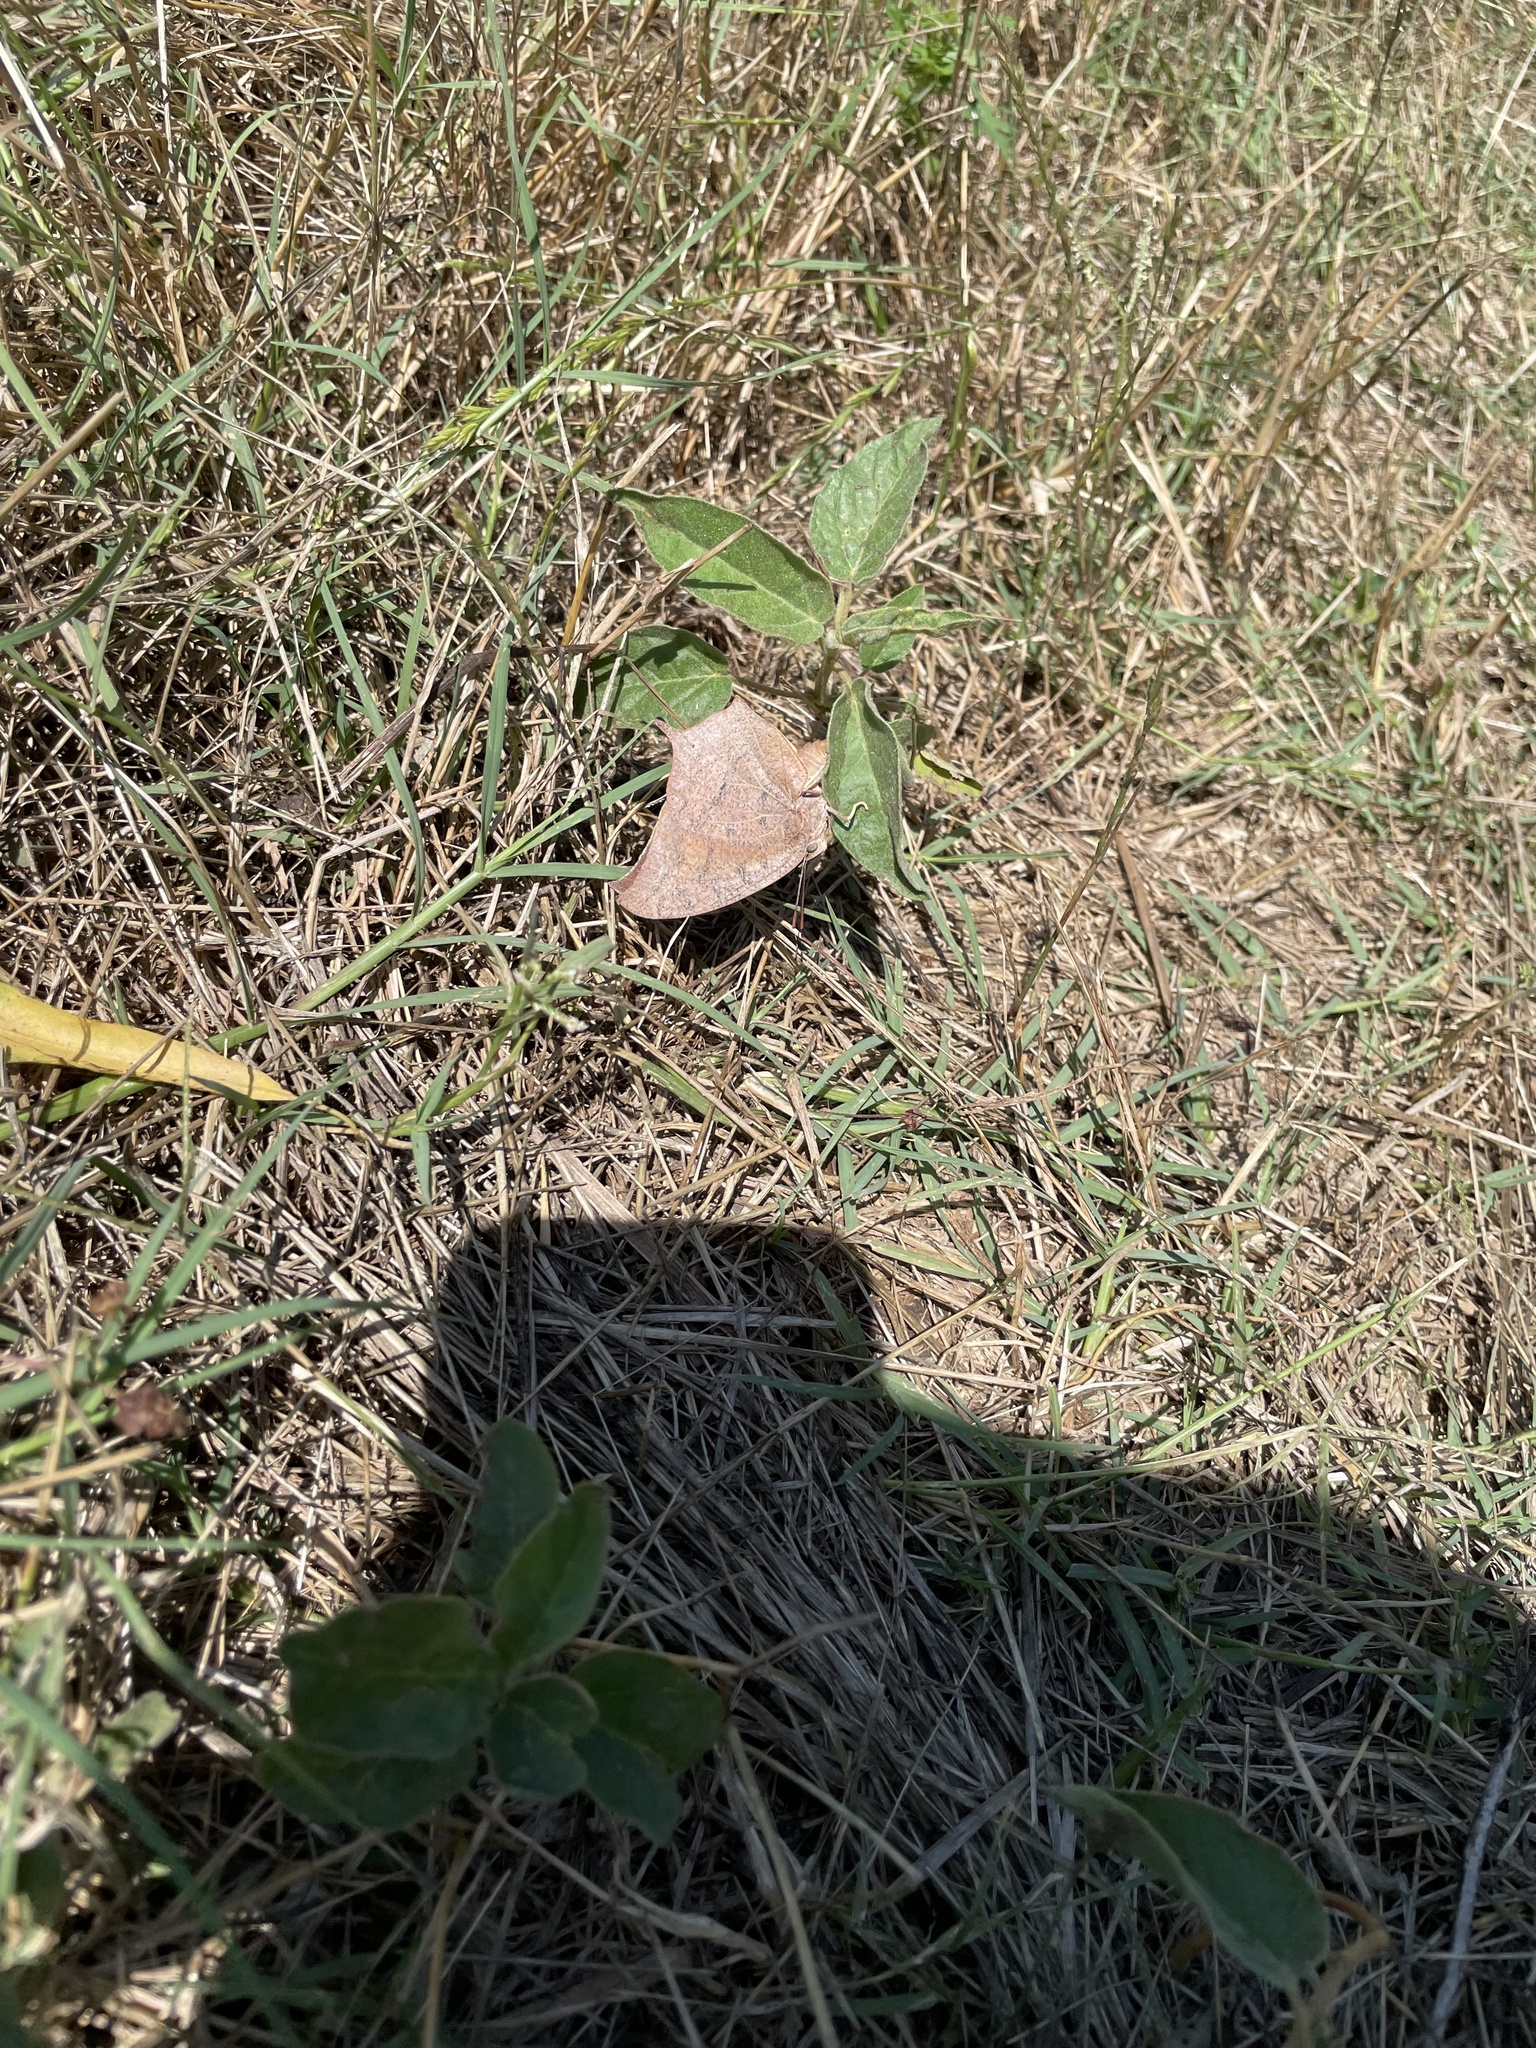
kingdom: Animalia
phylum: Arthropoda
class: Insecta
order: Lepidoptera
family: Nymphalidae
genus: Anaea
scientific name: Anaea andria
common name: Goatweed leafwing
